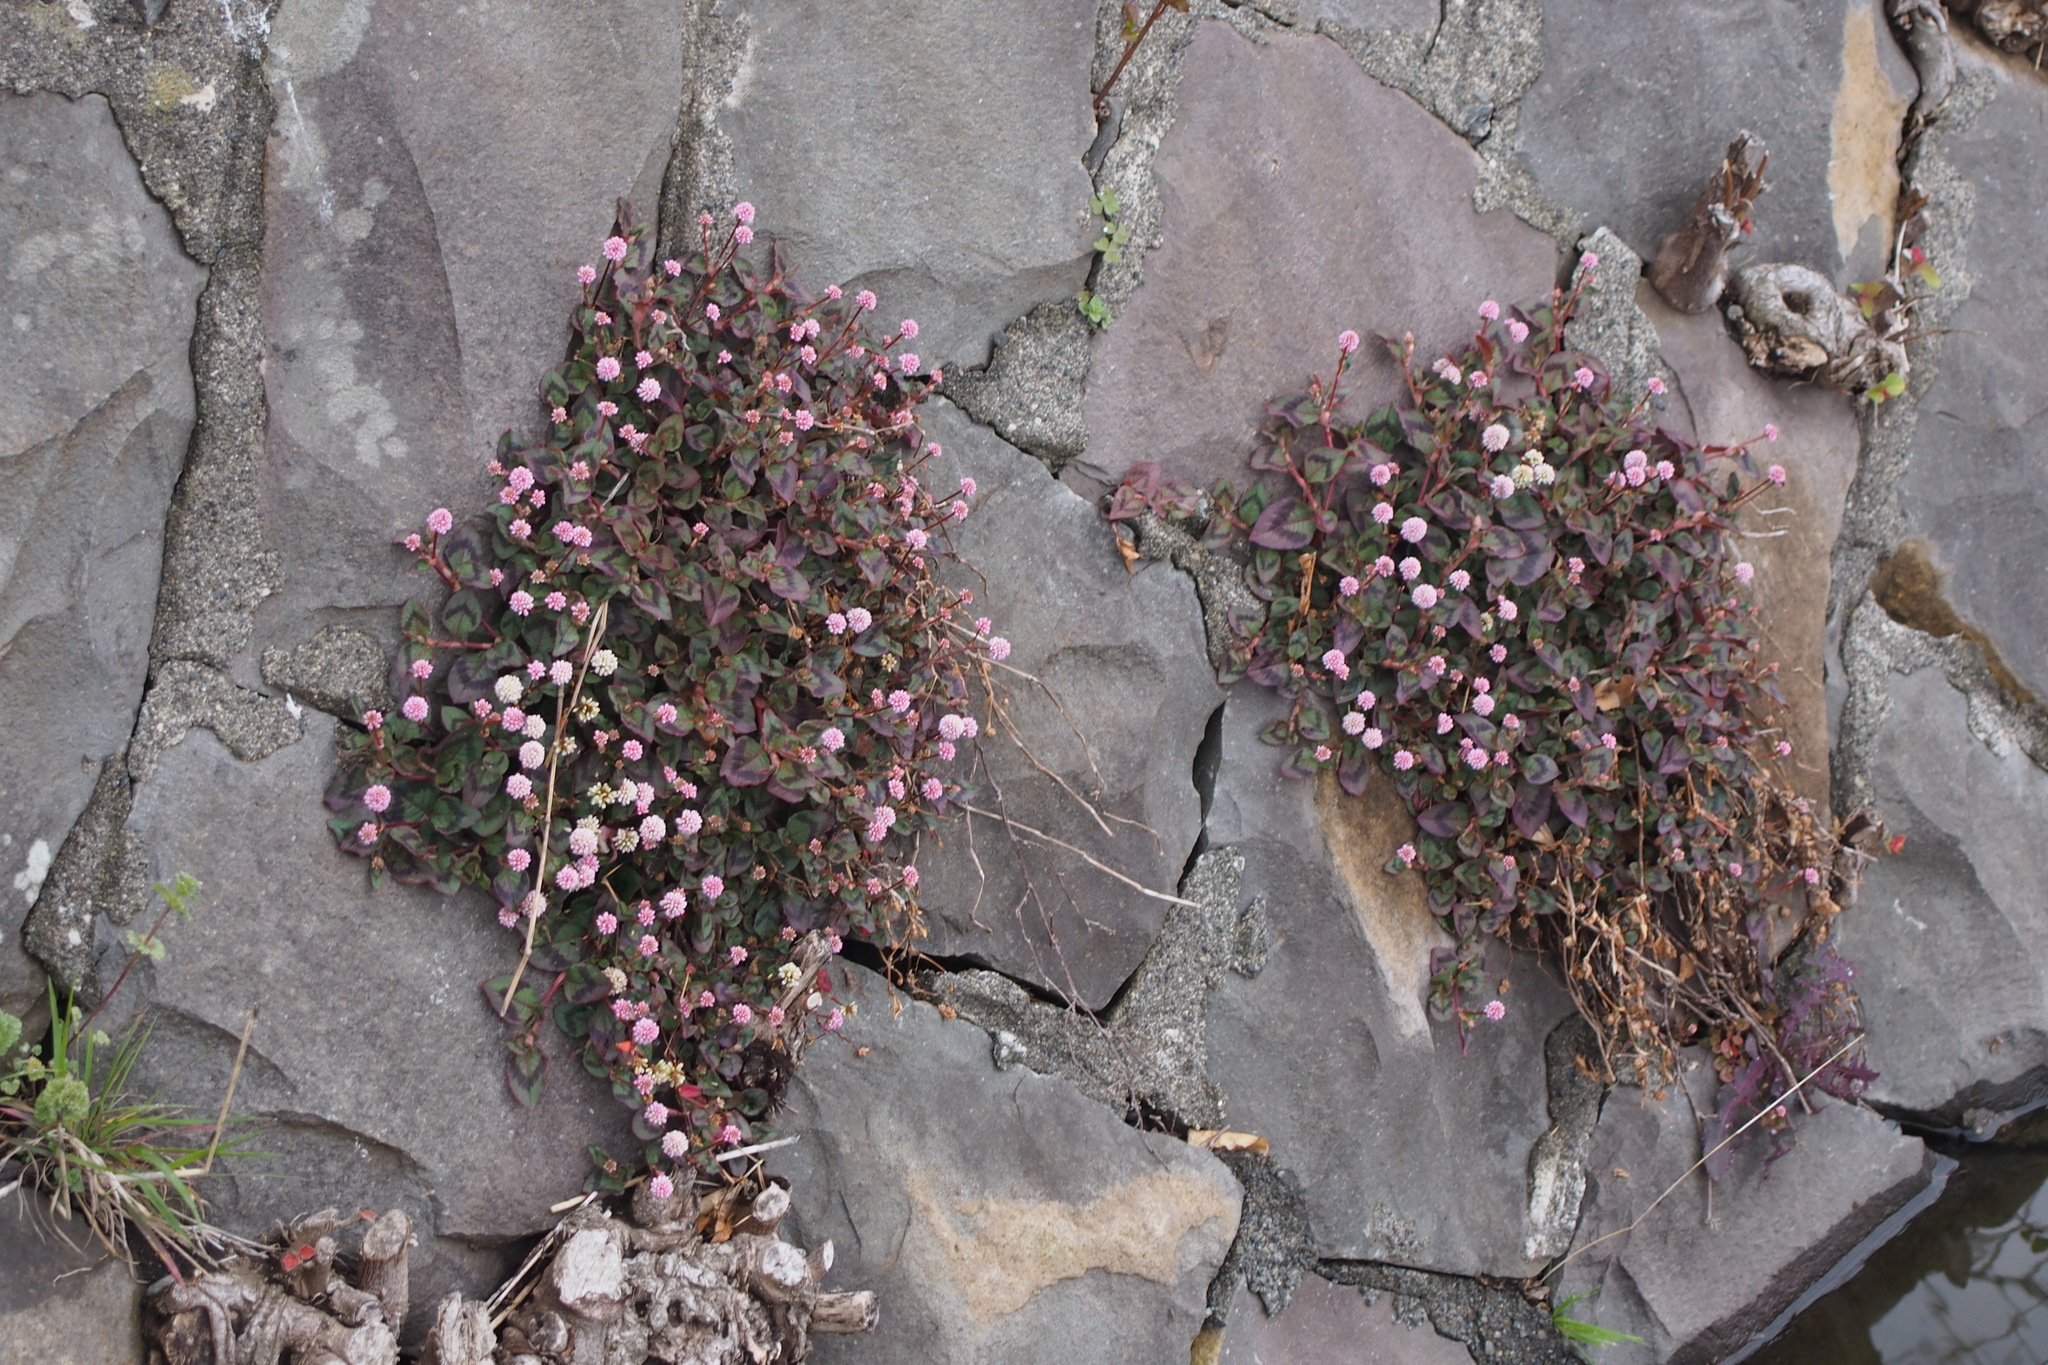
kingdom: Plantae
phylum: Tracheophyta
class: Magnoliopsida
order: Caryophyllales
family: Polygonaceae
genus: Persicaria
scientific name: Persicaria capitata
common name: Pinkhead smartweed
